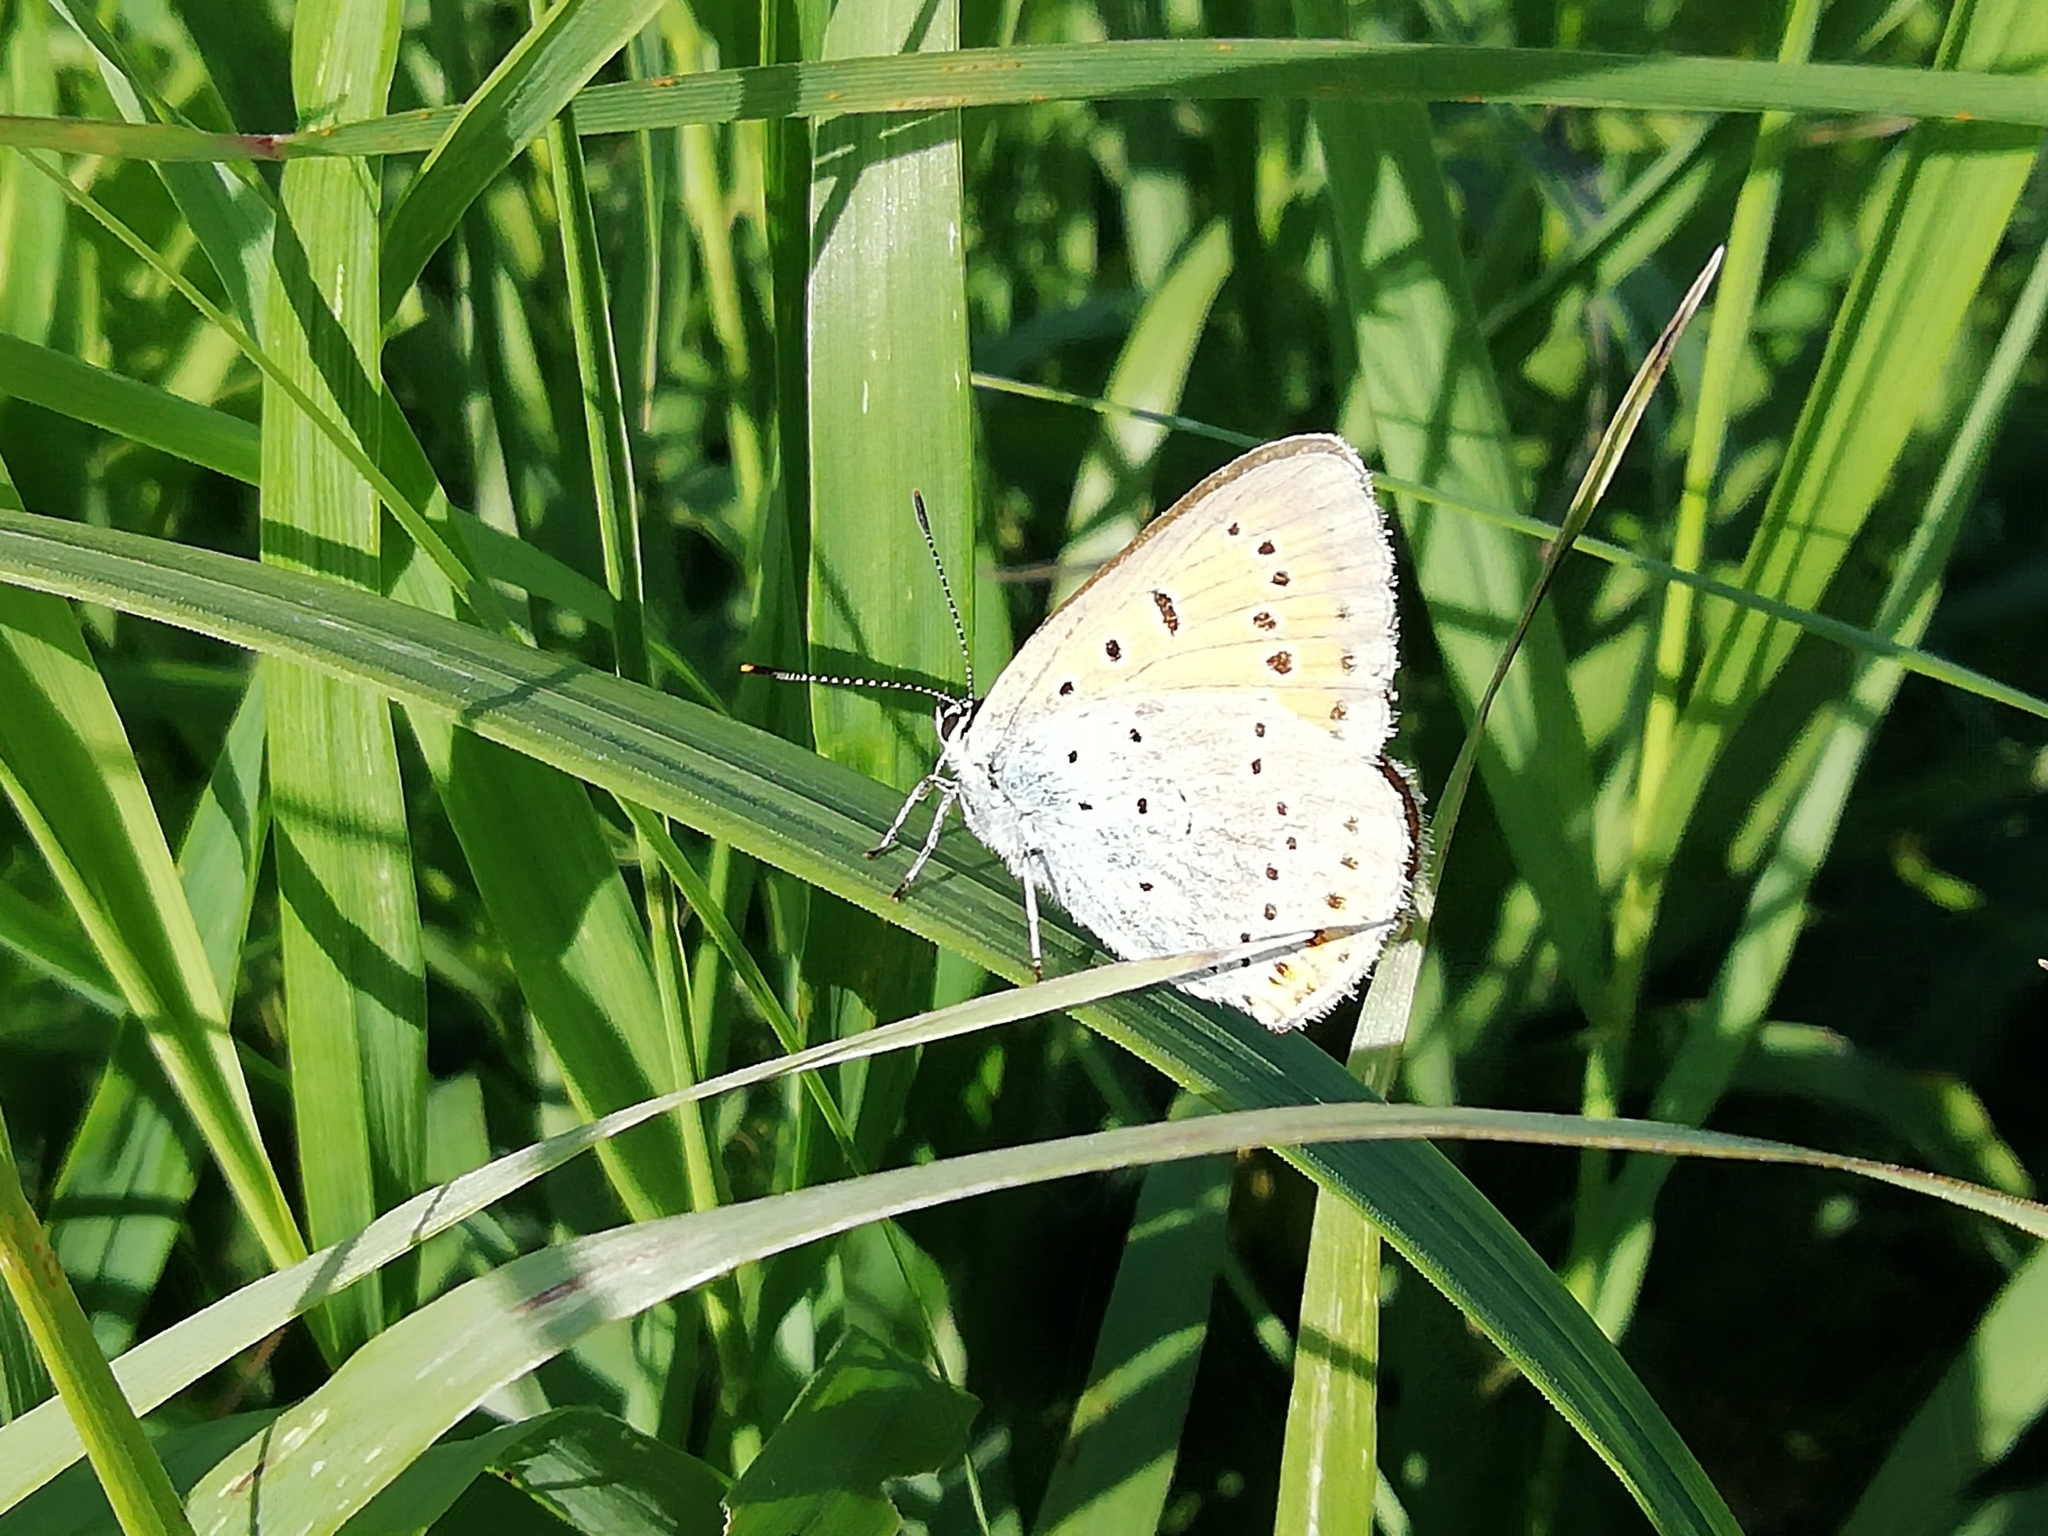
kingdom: Animalia
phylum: Arthropoda
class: Insecta
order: Lepidoptera
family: Lycaenidae
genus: Lycaena
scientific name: Lycaena dispar
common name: Large copper
